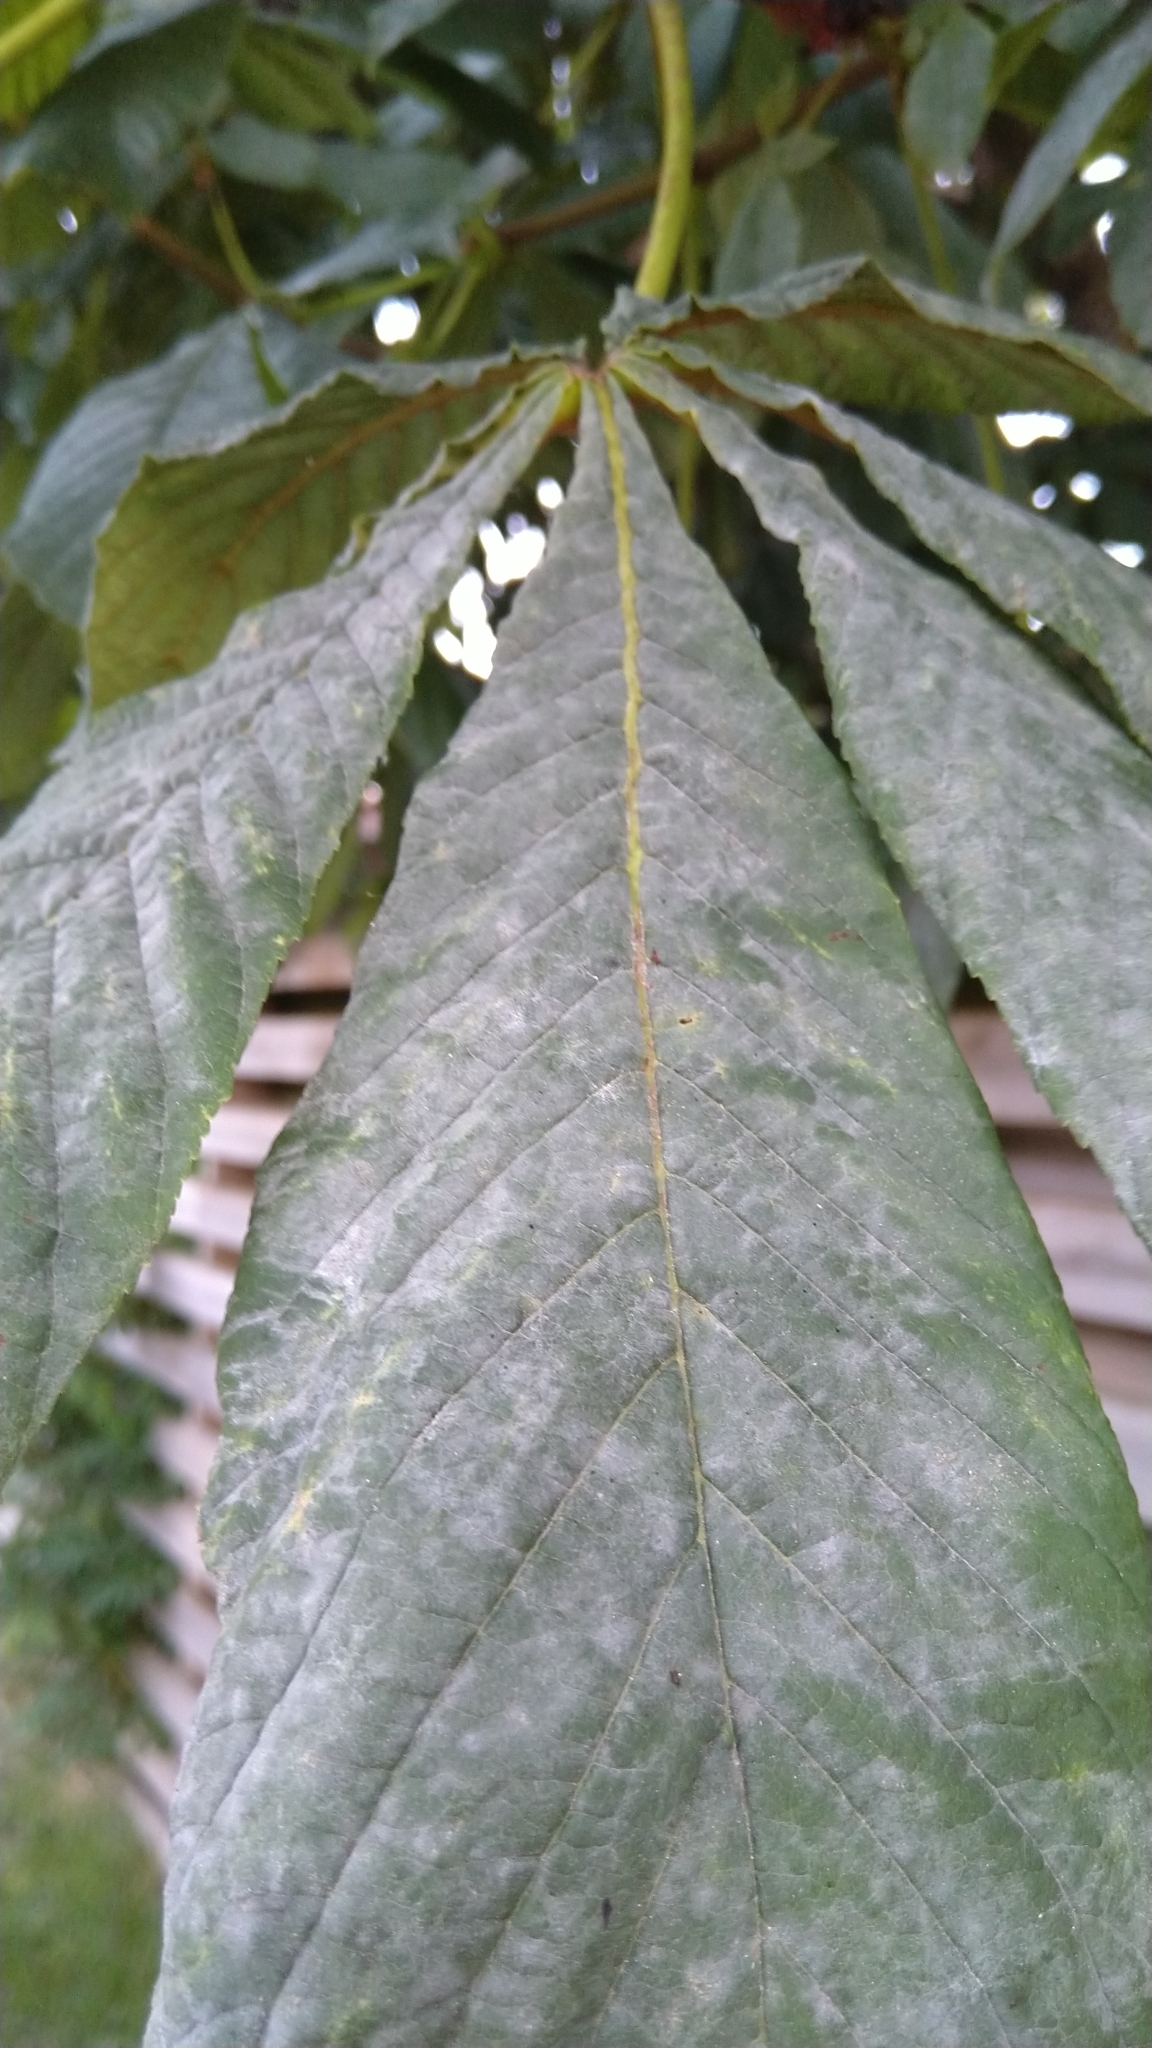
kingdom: Fungi
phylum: Ascomycota
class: Leotiomycetes
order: Helotiales
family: Erysiphaceae
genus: Erysiphe
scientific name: Erysiphe flexuosa
